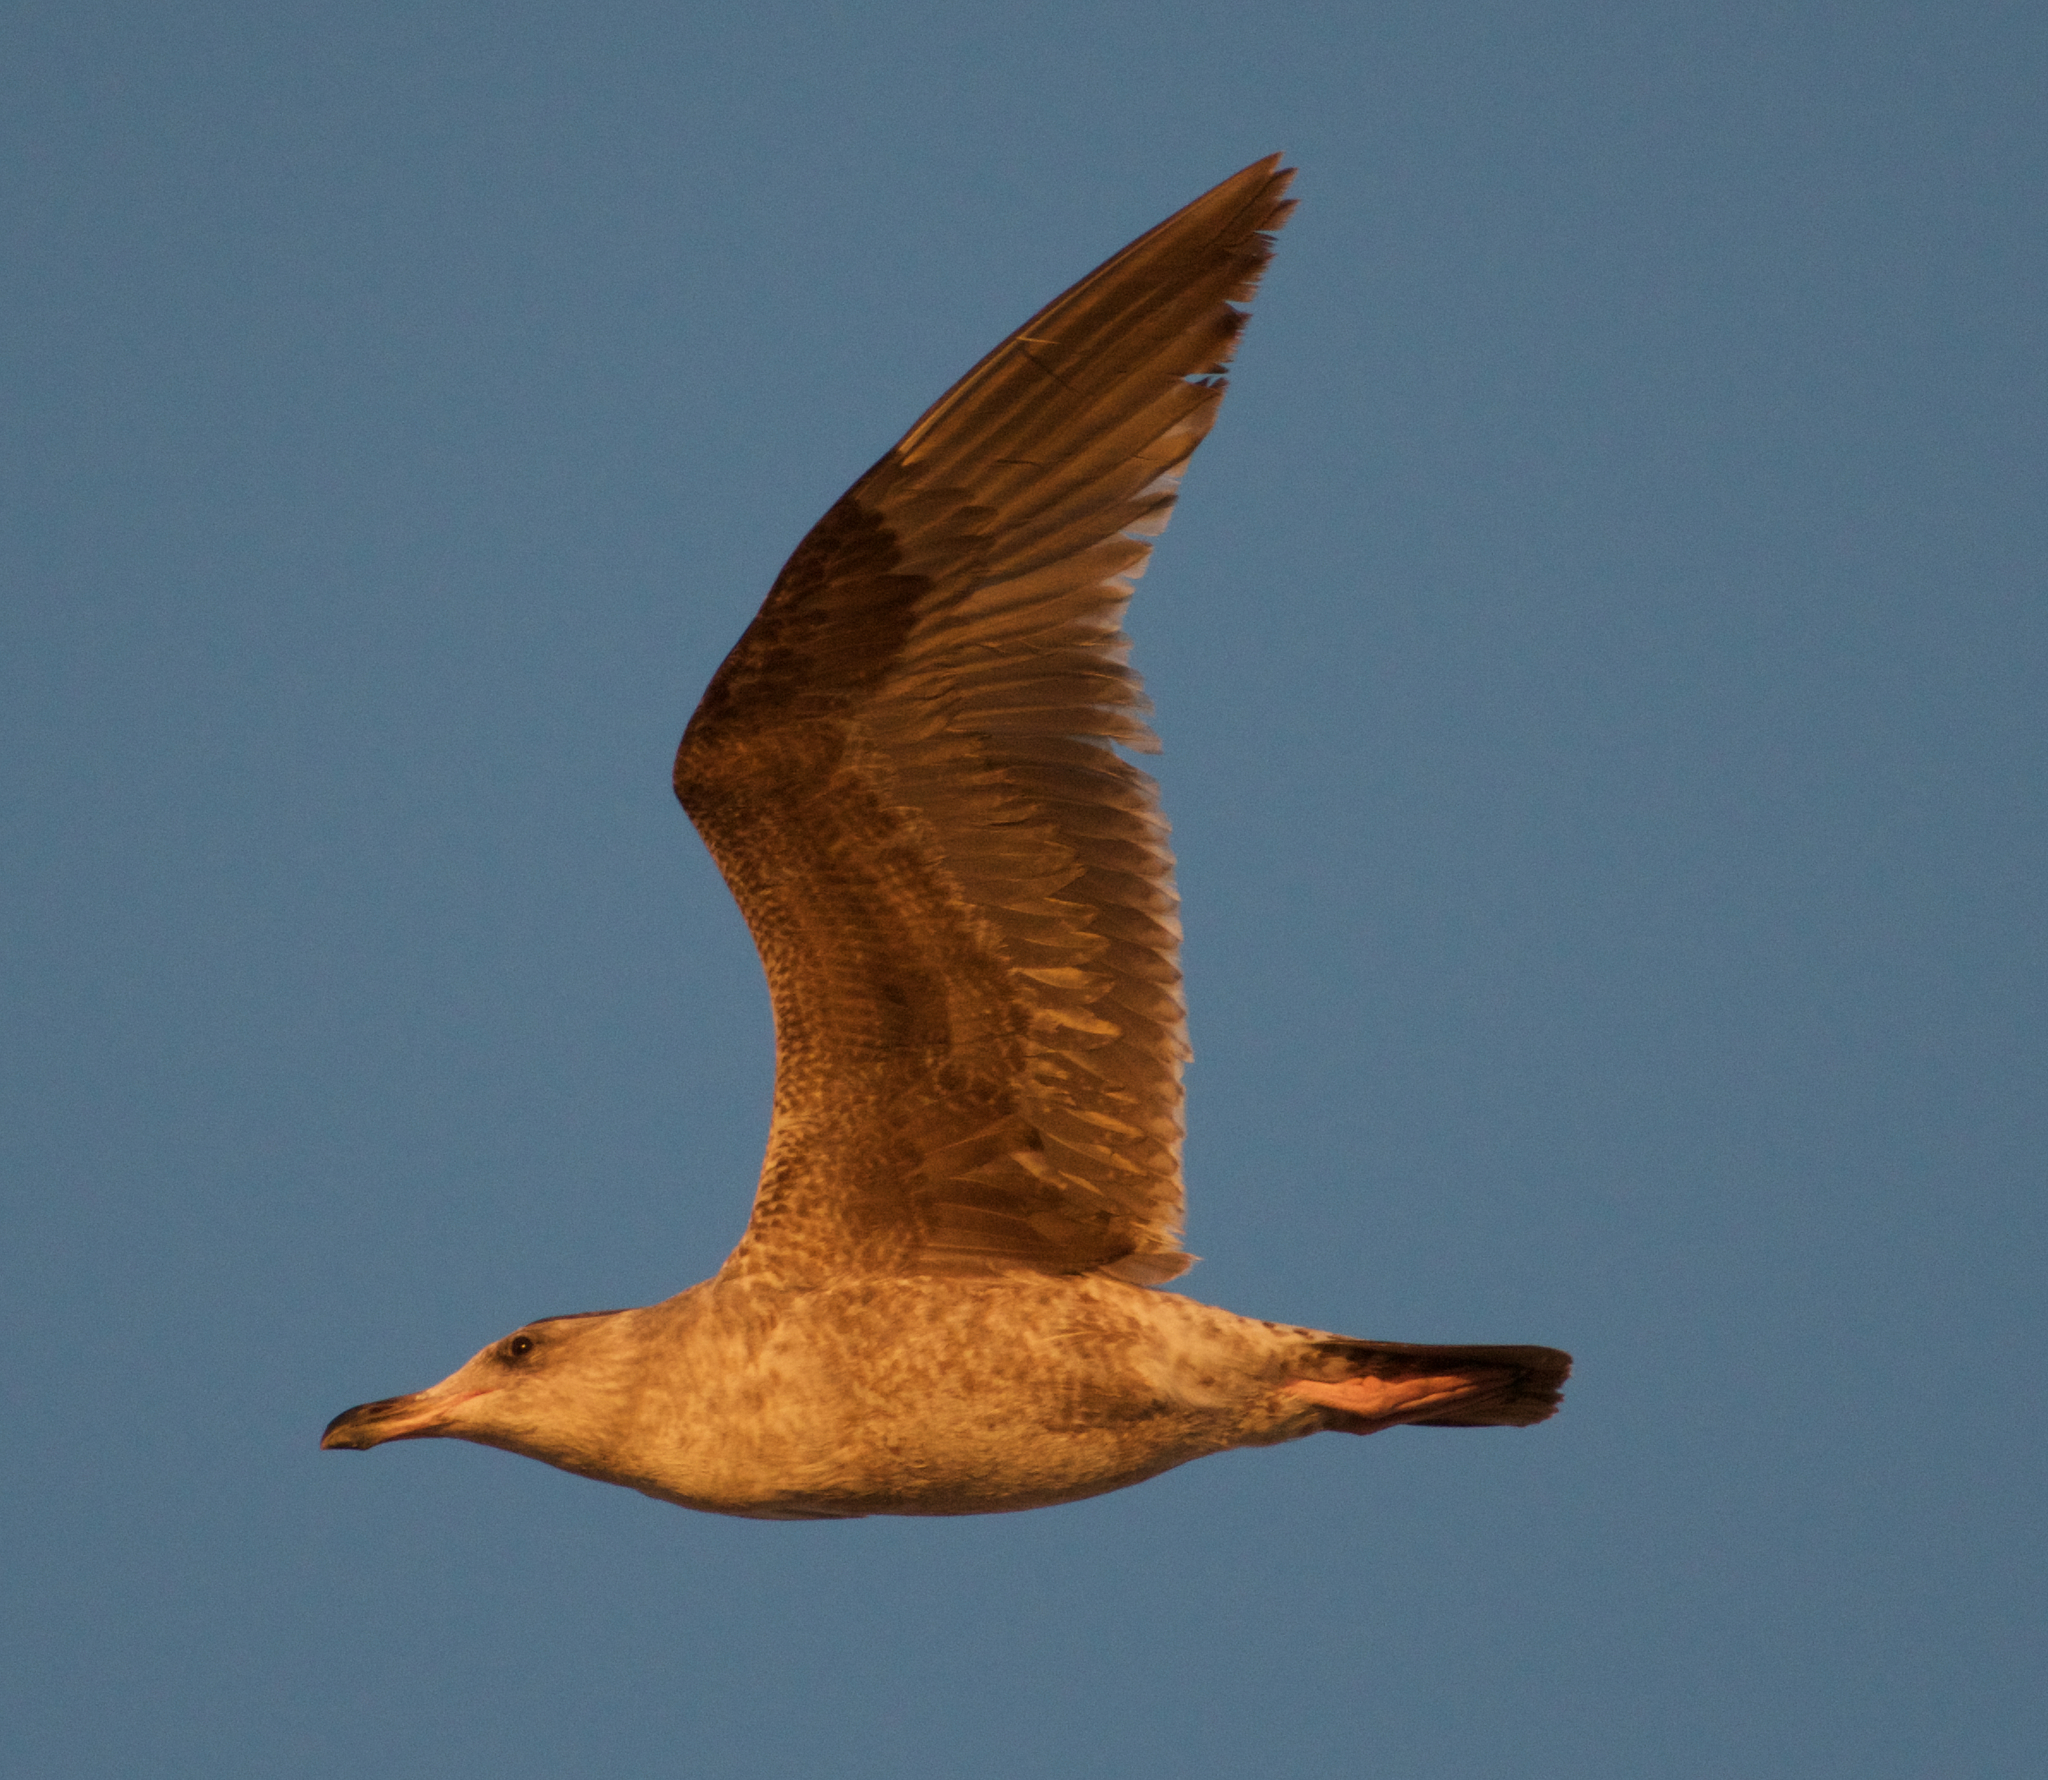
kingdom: Animalia
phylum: Chordata
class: Aves
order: Charadriiformes
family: Laridae
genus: Larus
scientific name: Larus occidentalis
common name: Western gull
